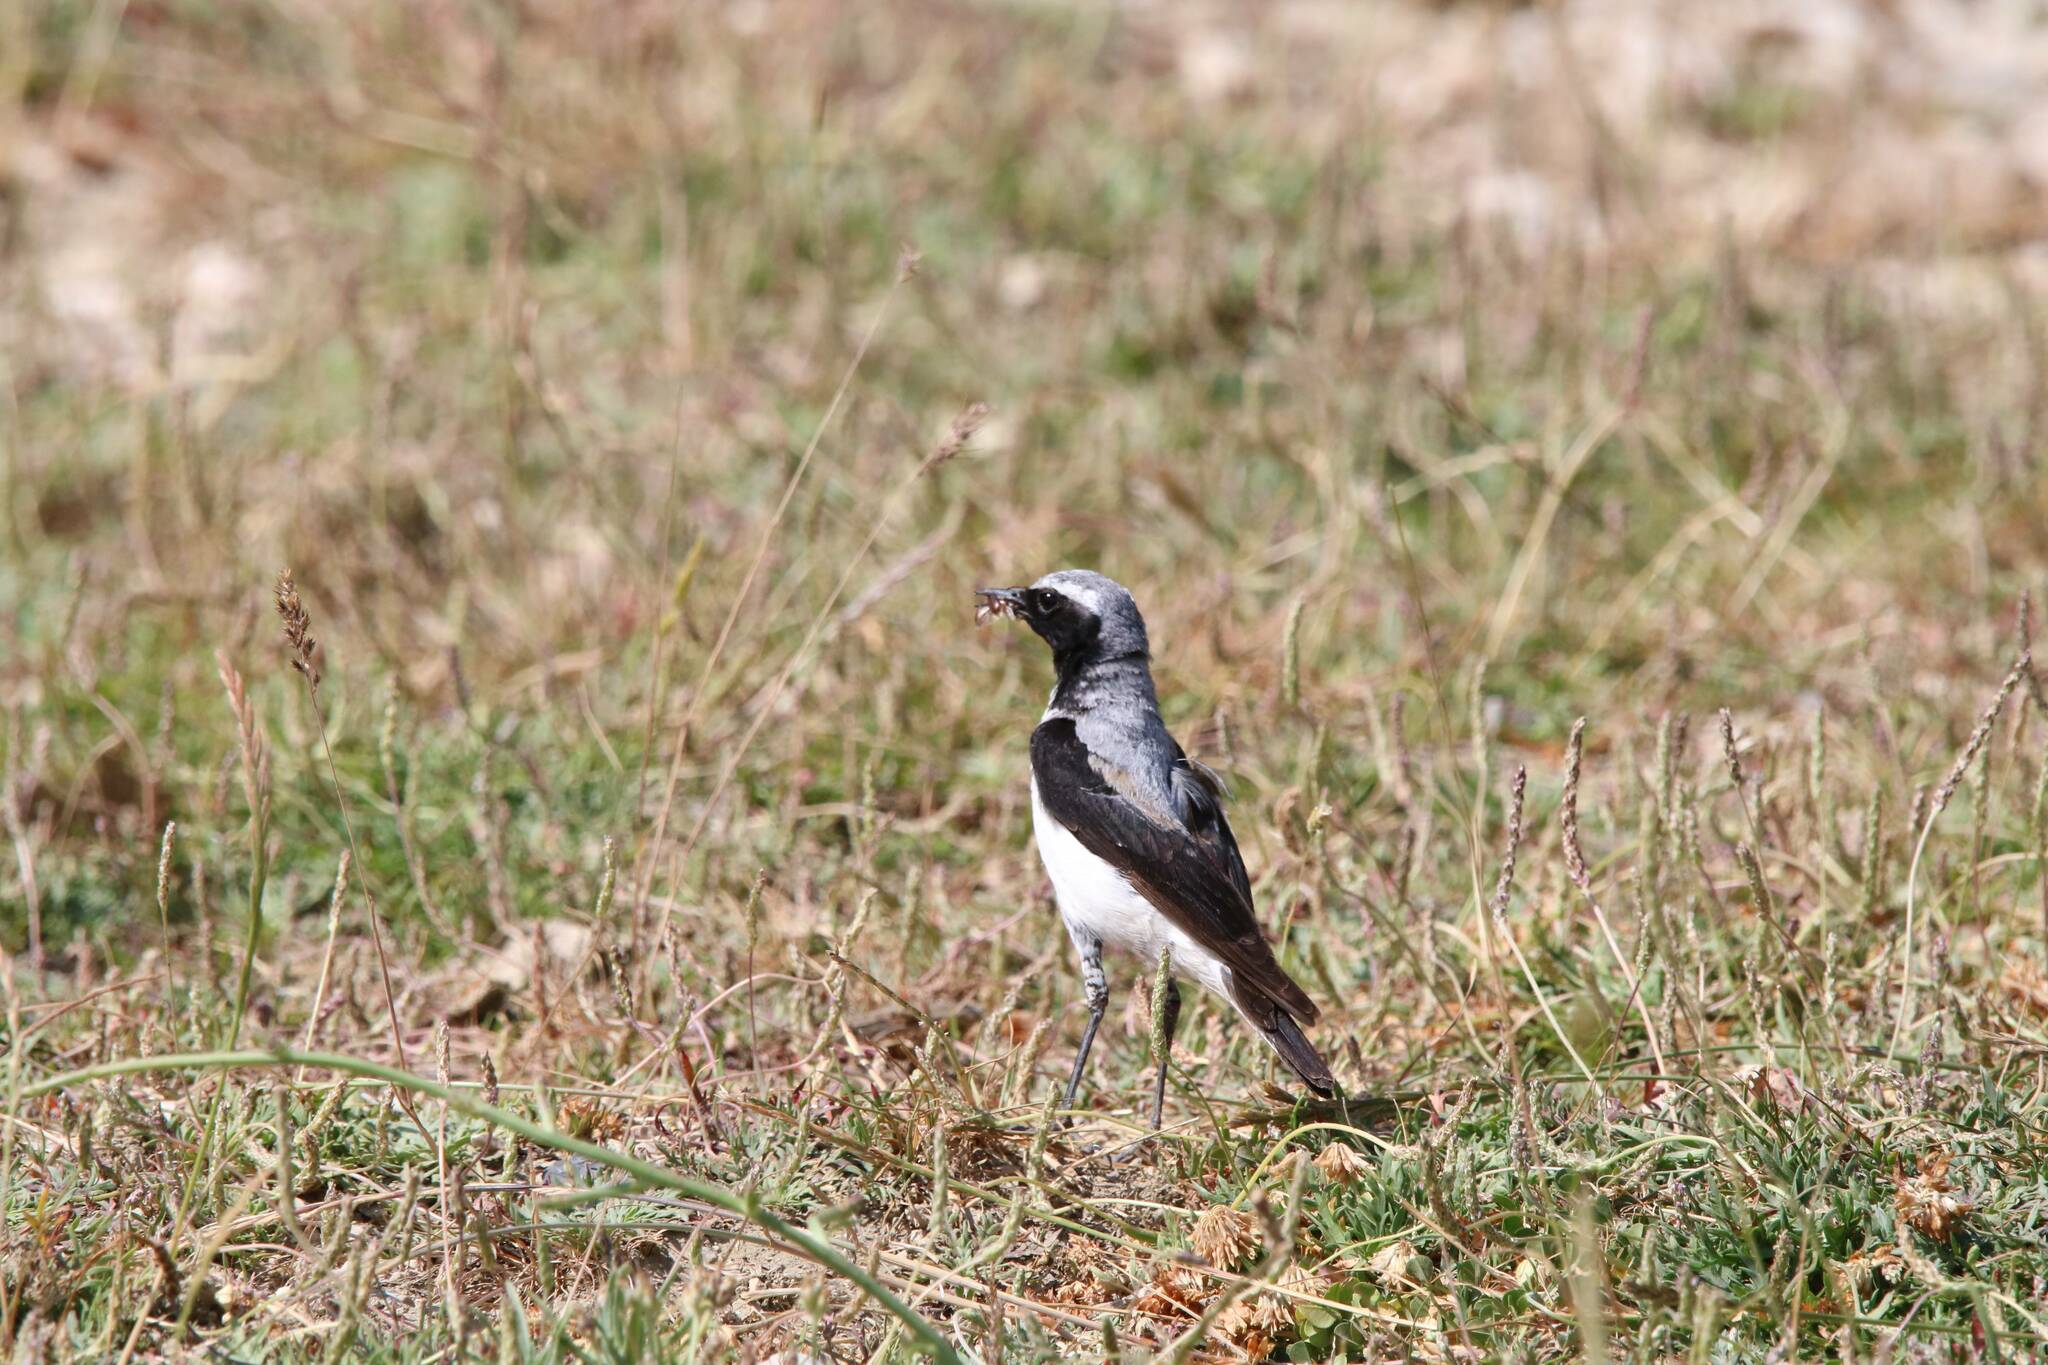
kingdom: Animalia
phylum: Chordata
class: Aves
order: Passeriformes
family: Muscicapidae
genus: Oenanthe
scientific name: Oenanthe oenanthe
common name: Northern wheatear
